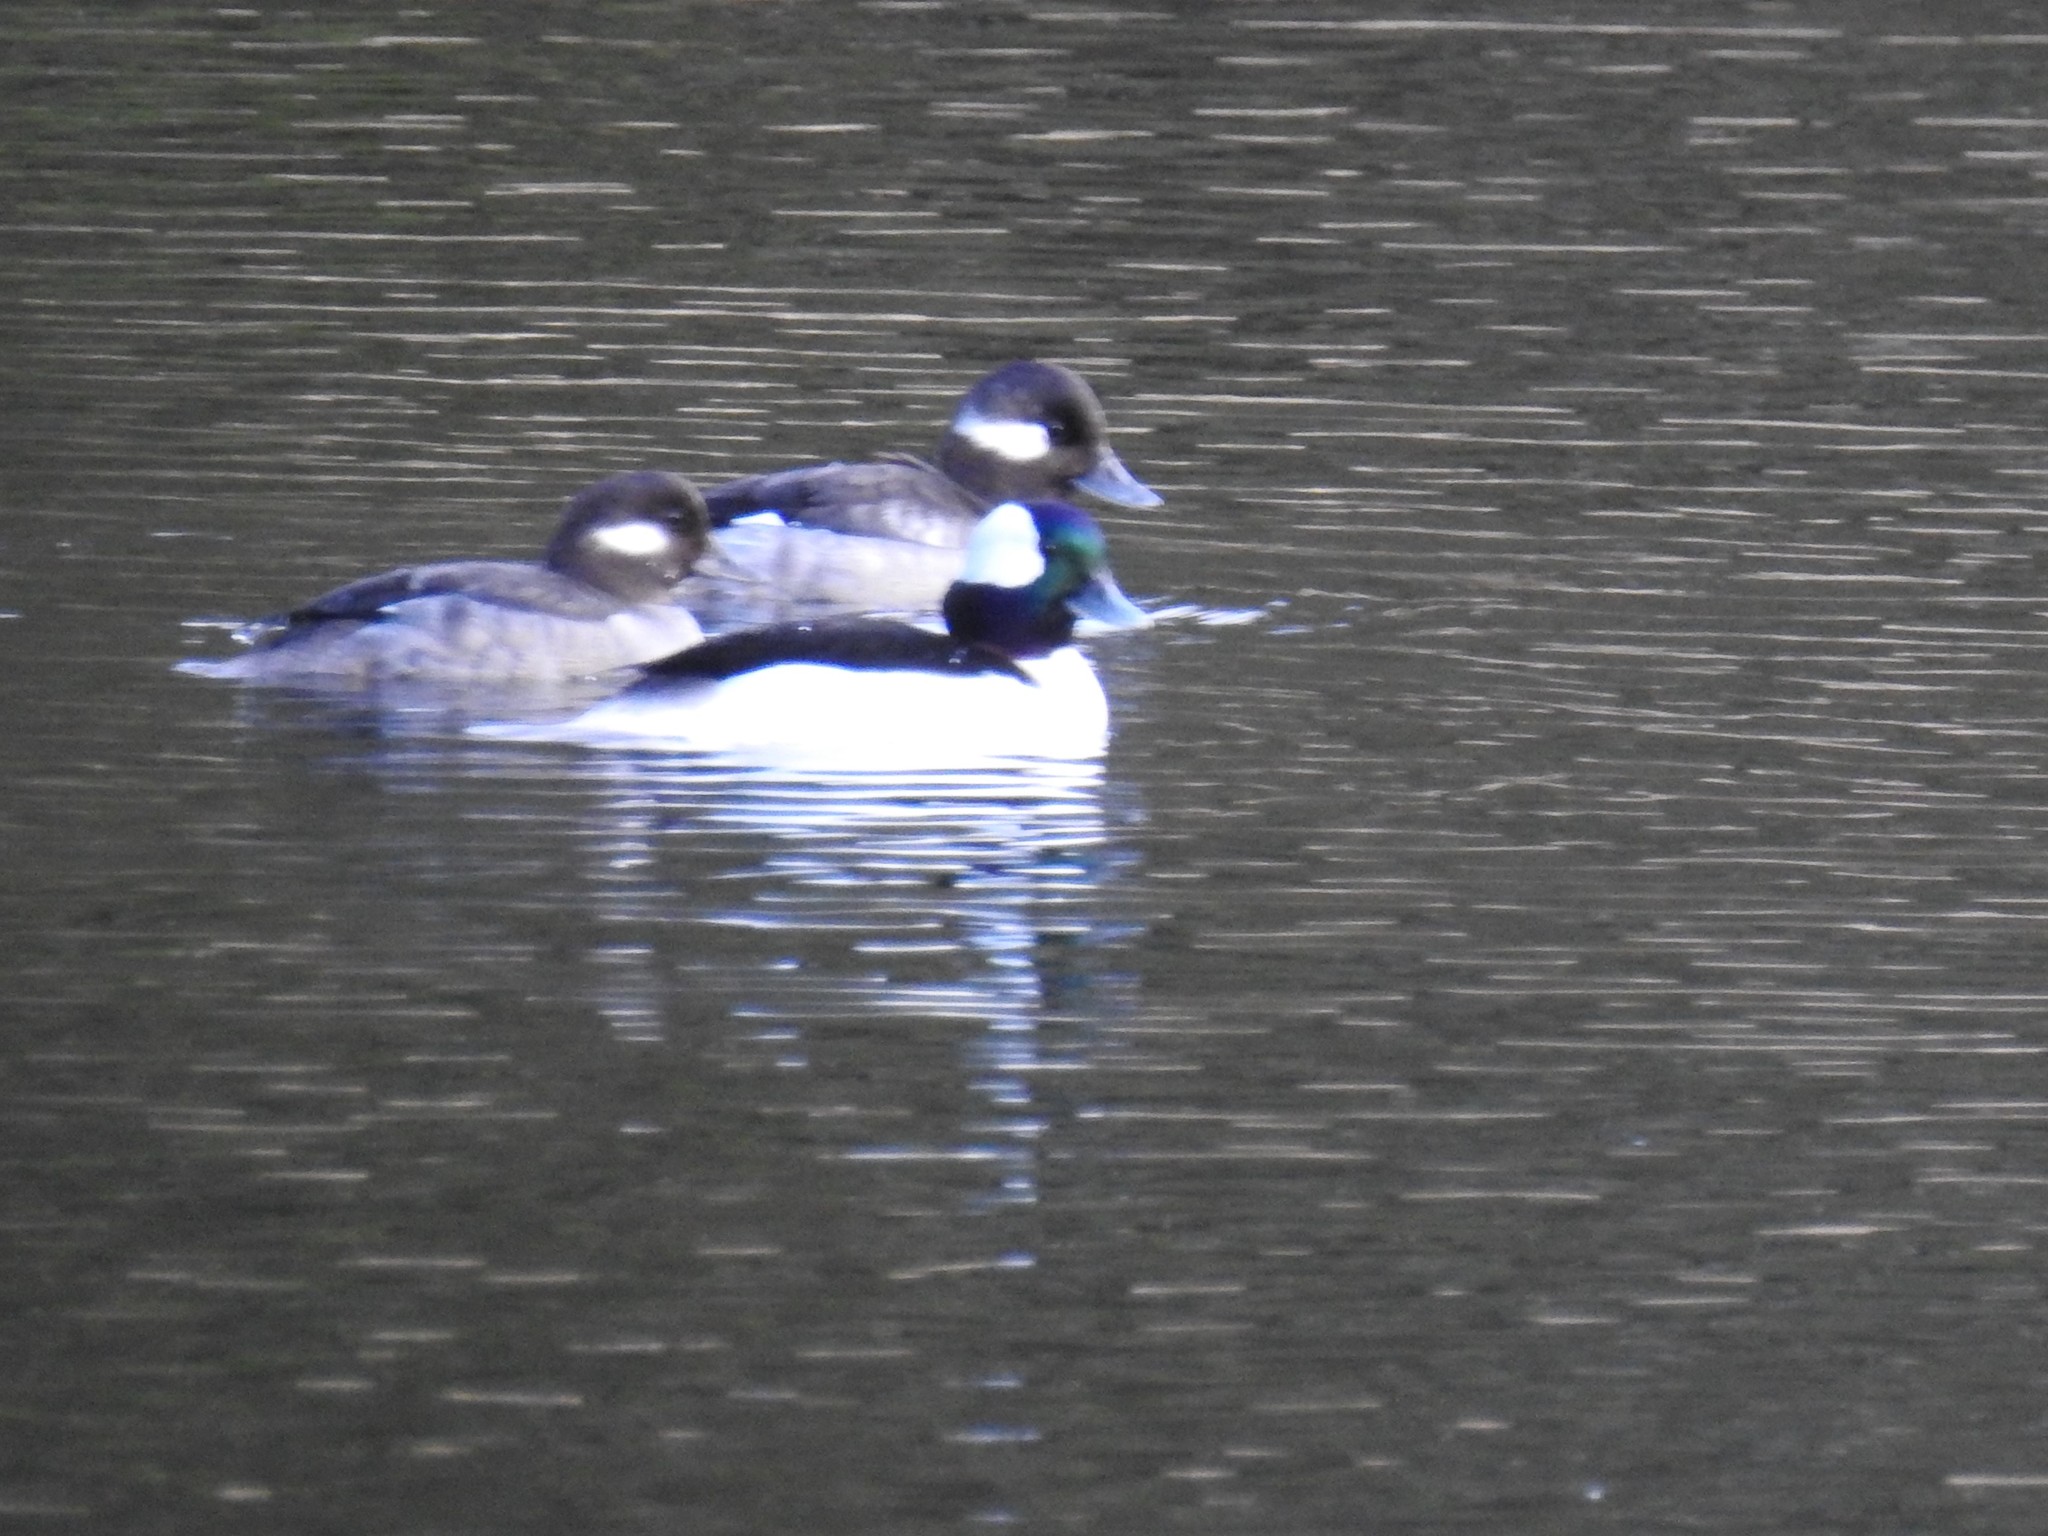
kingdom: Animalia
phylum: Chordata
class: Aves
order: Anseriformes
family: Anatidae
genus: Bucephala
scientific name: Bucephala albeola
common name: Bufflehead
